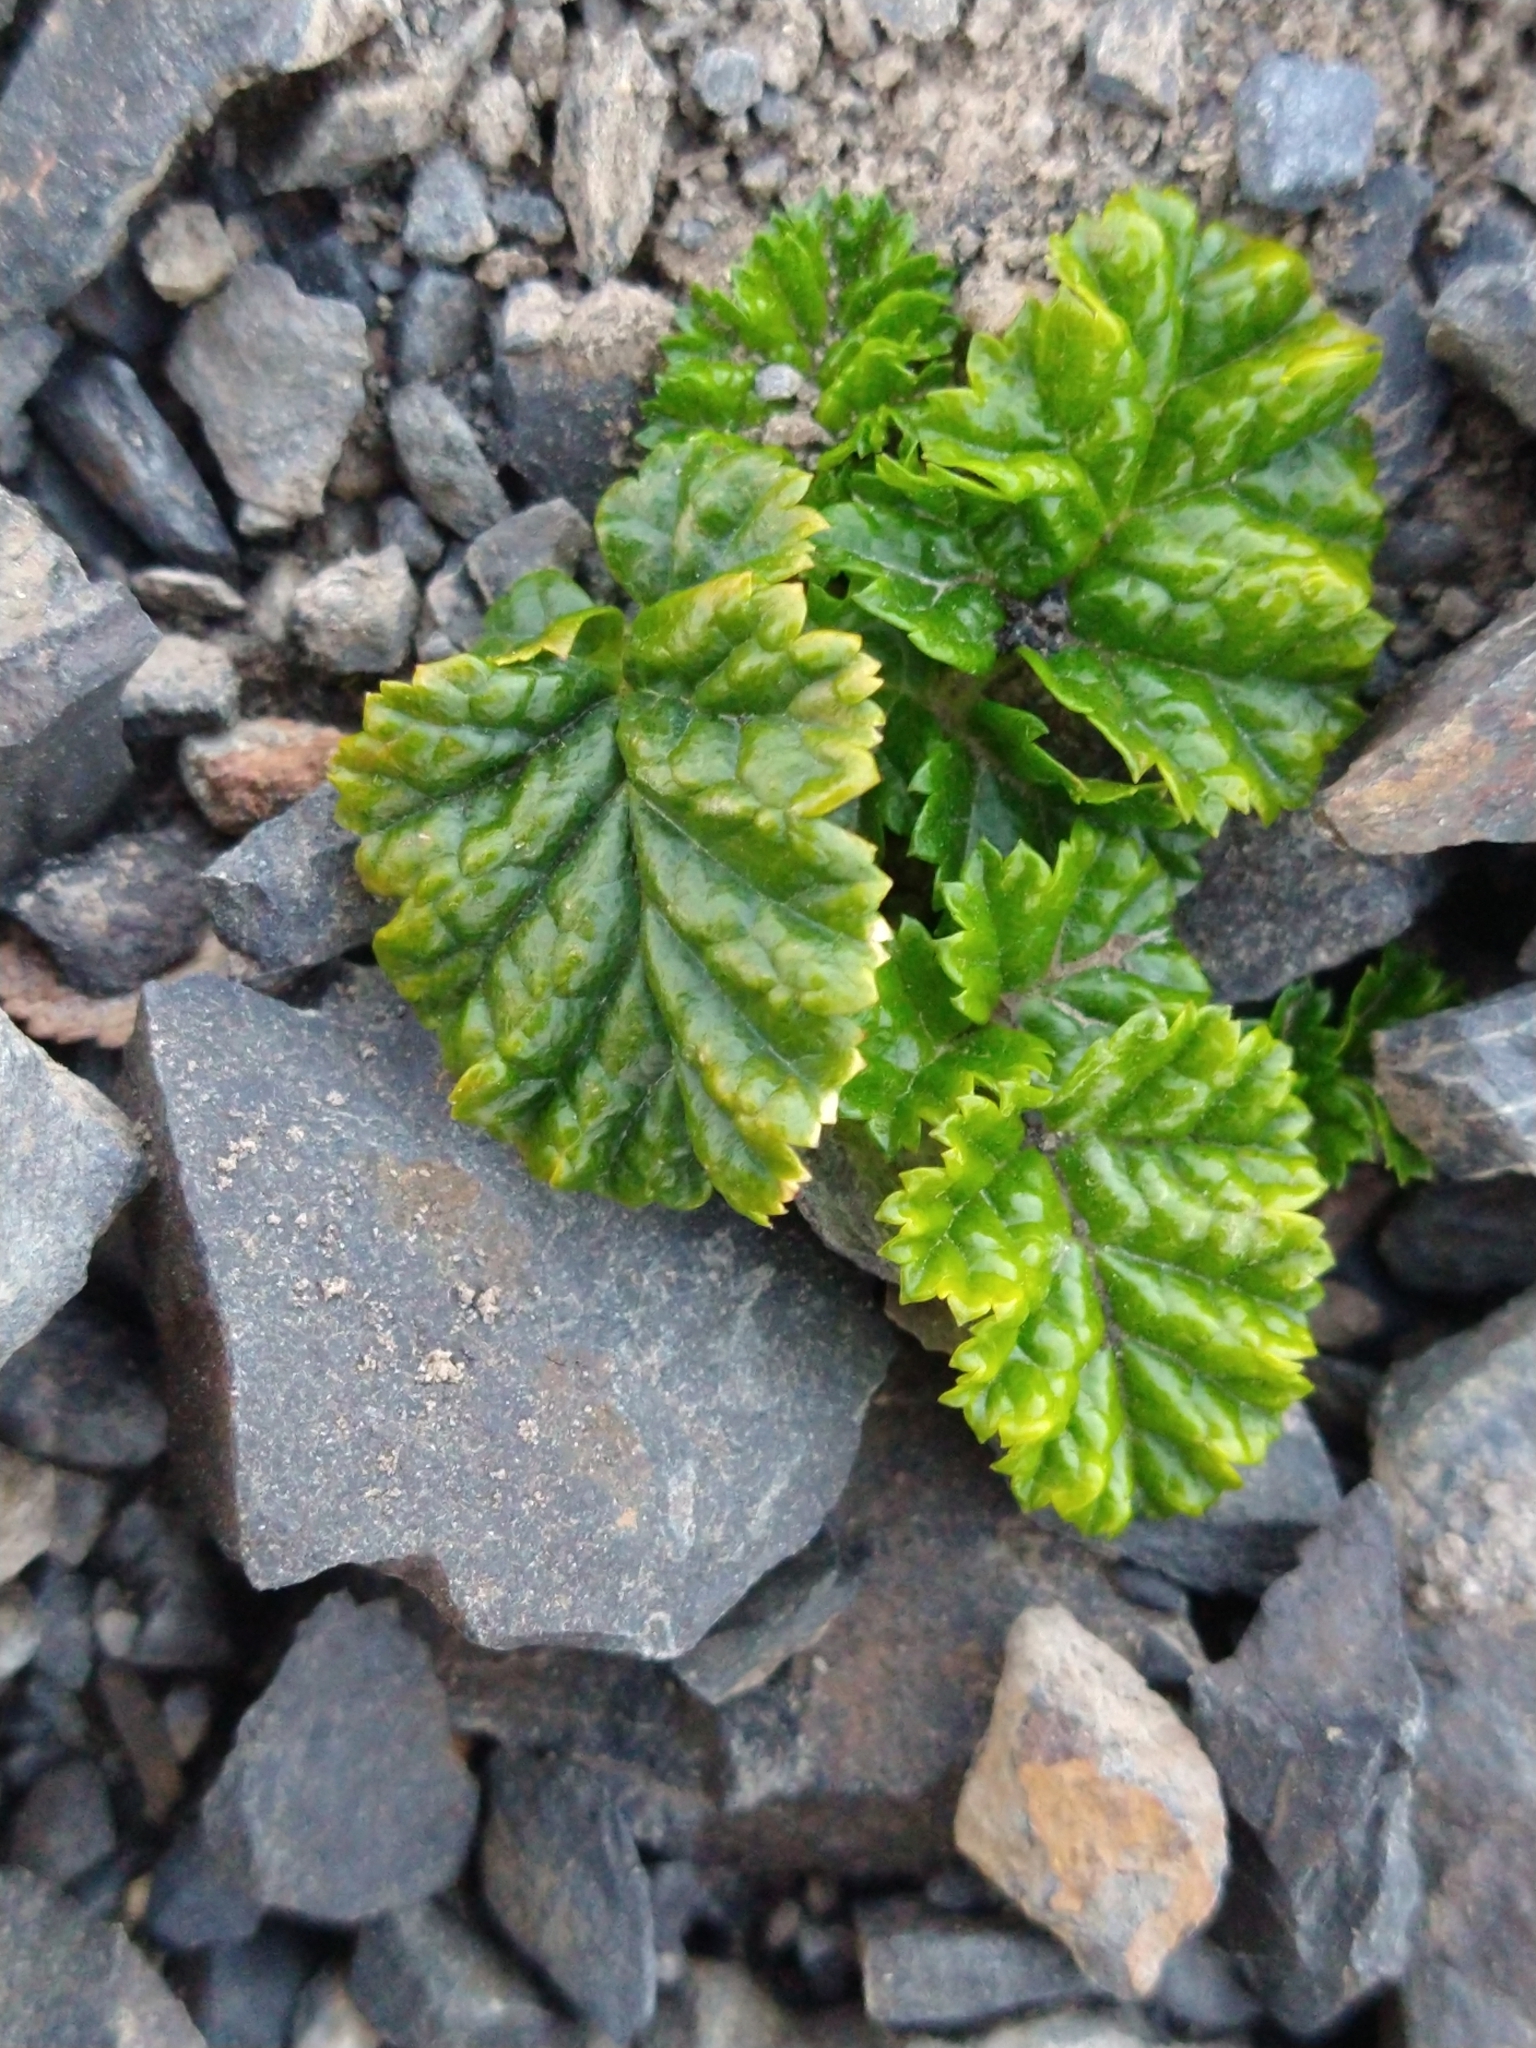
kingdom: Plantae
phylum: Tracheophyta
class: Magnoliopsida
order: Rosales
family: Rosaceae
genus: Rubus
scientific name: Rubus geoides
